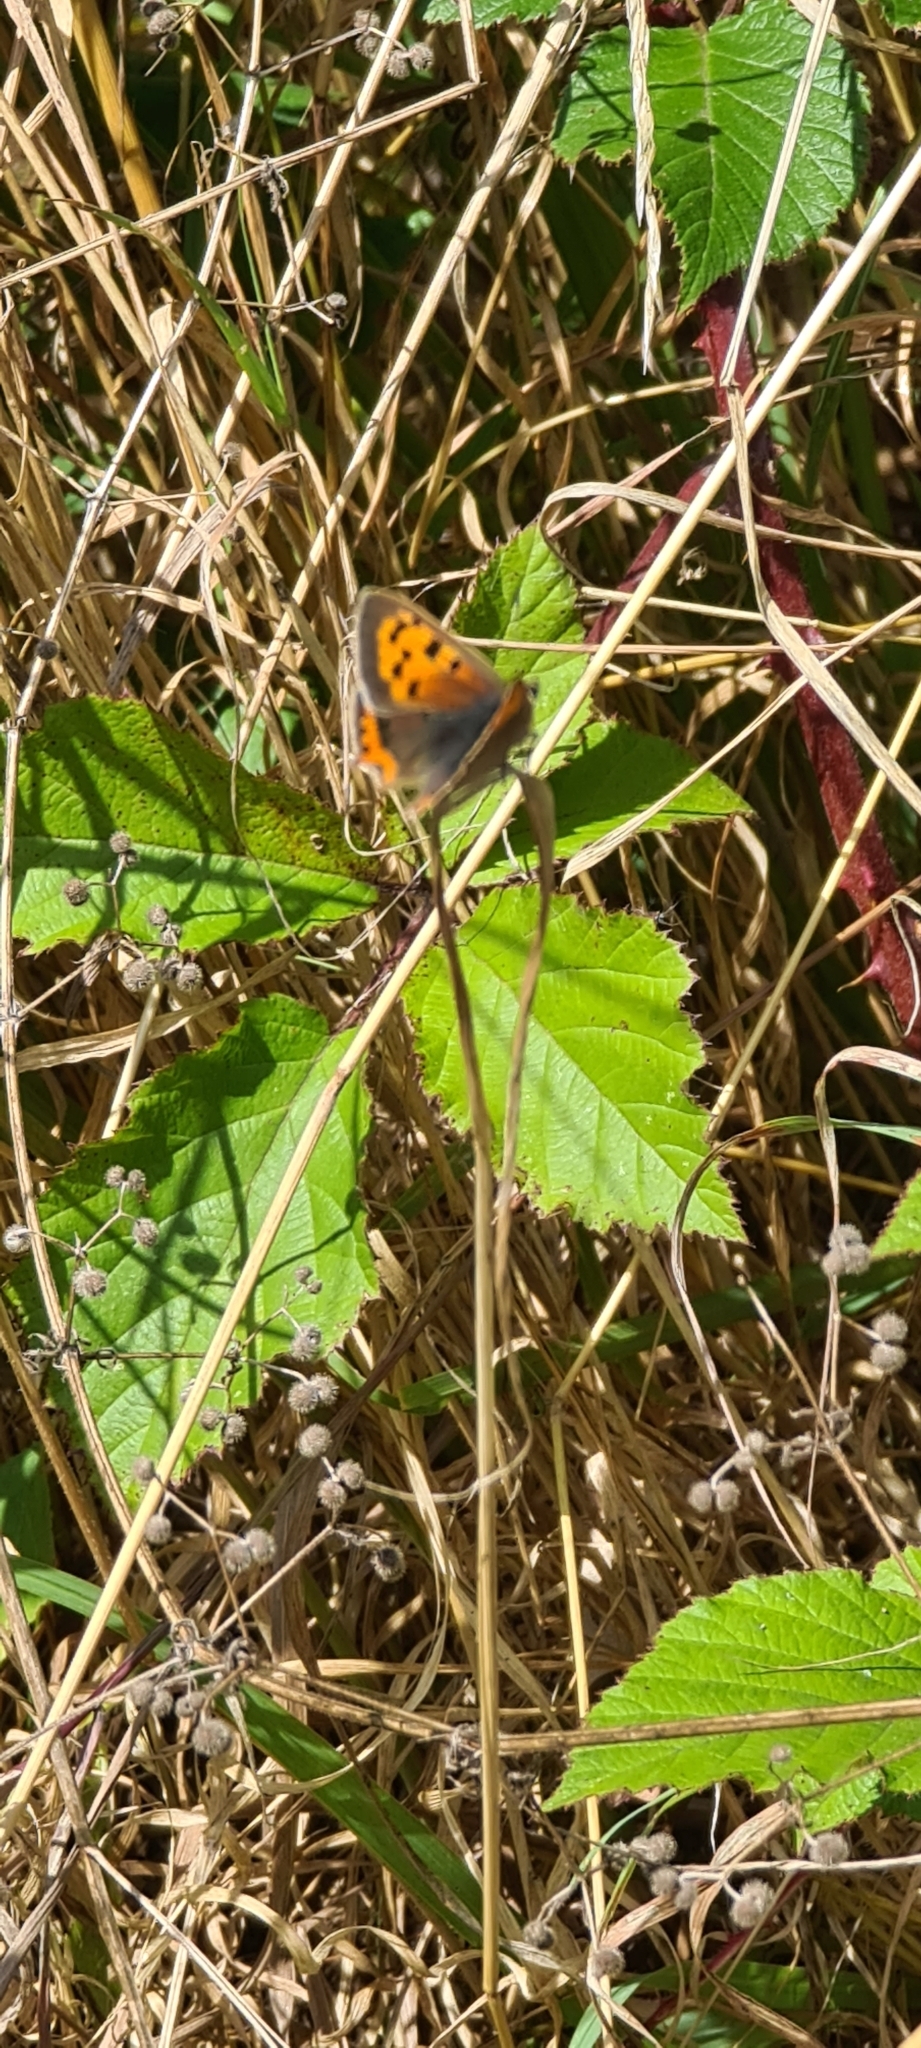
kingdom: Animalia
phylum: Arthropoda
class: Insecta
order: Lepidoptera
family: Lycaenidae
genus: Lycaena
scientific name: Lycaena phlaeas
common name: Small copper
